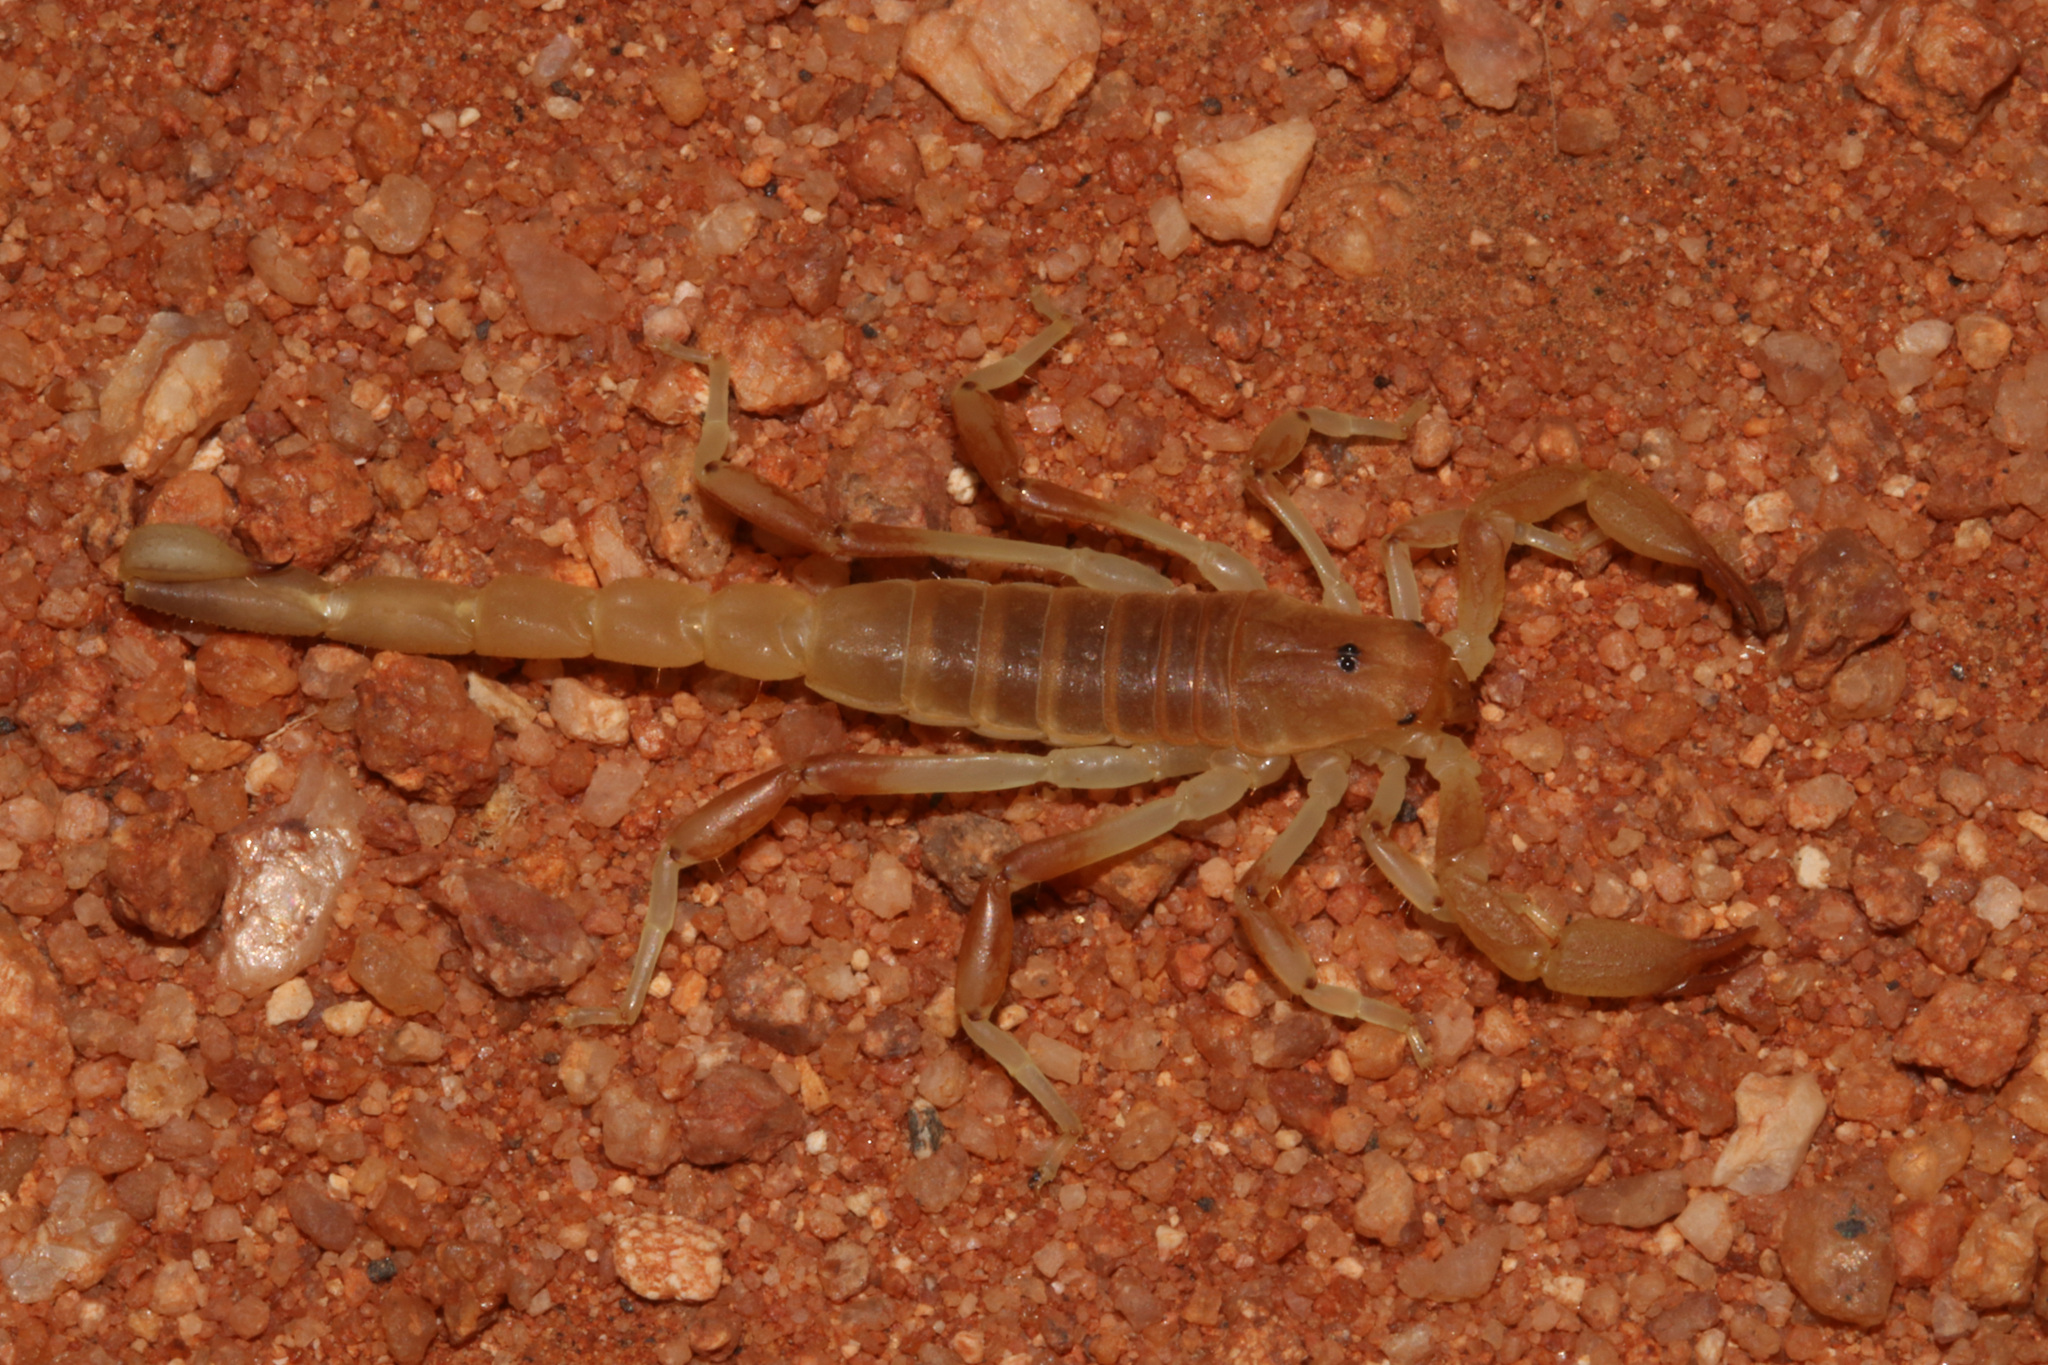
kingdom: Animalia
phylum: Arthropoda
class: Arachnida
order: Scorpiones
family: Scorpionidae
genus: Opistophthalmus
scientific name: Opistophthalmus lornae
